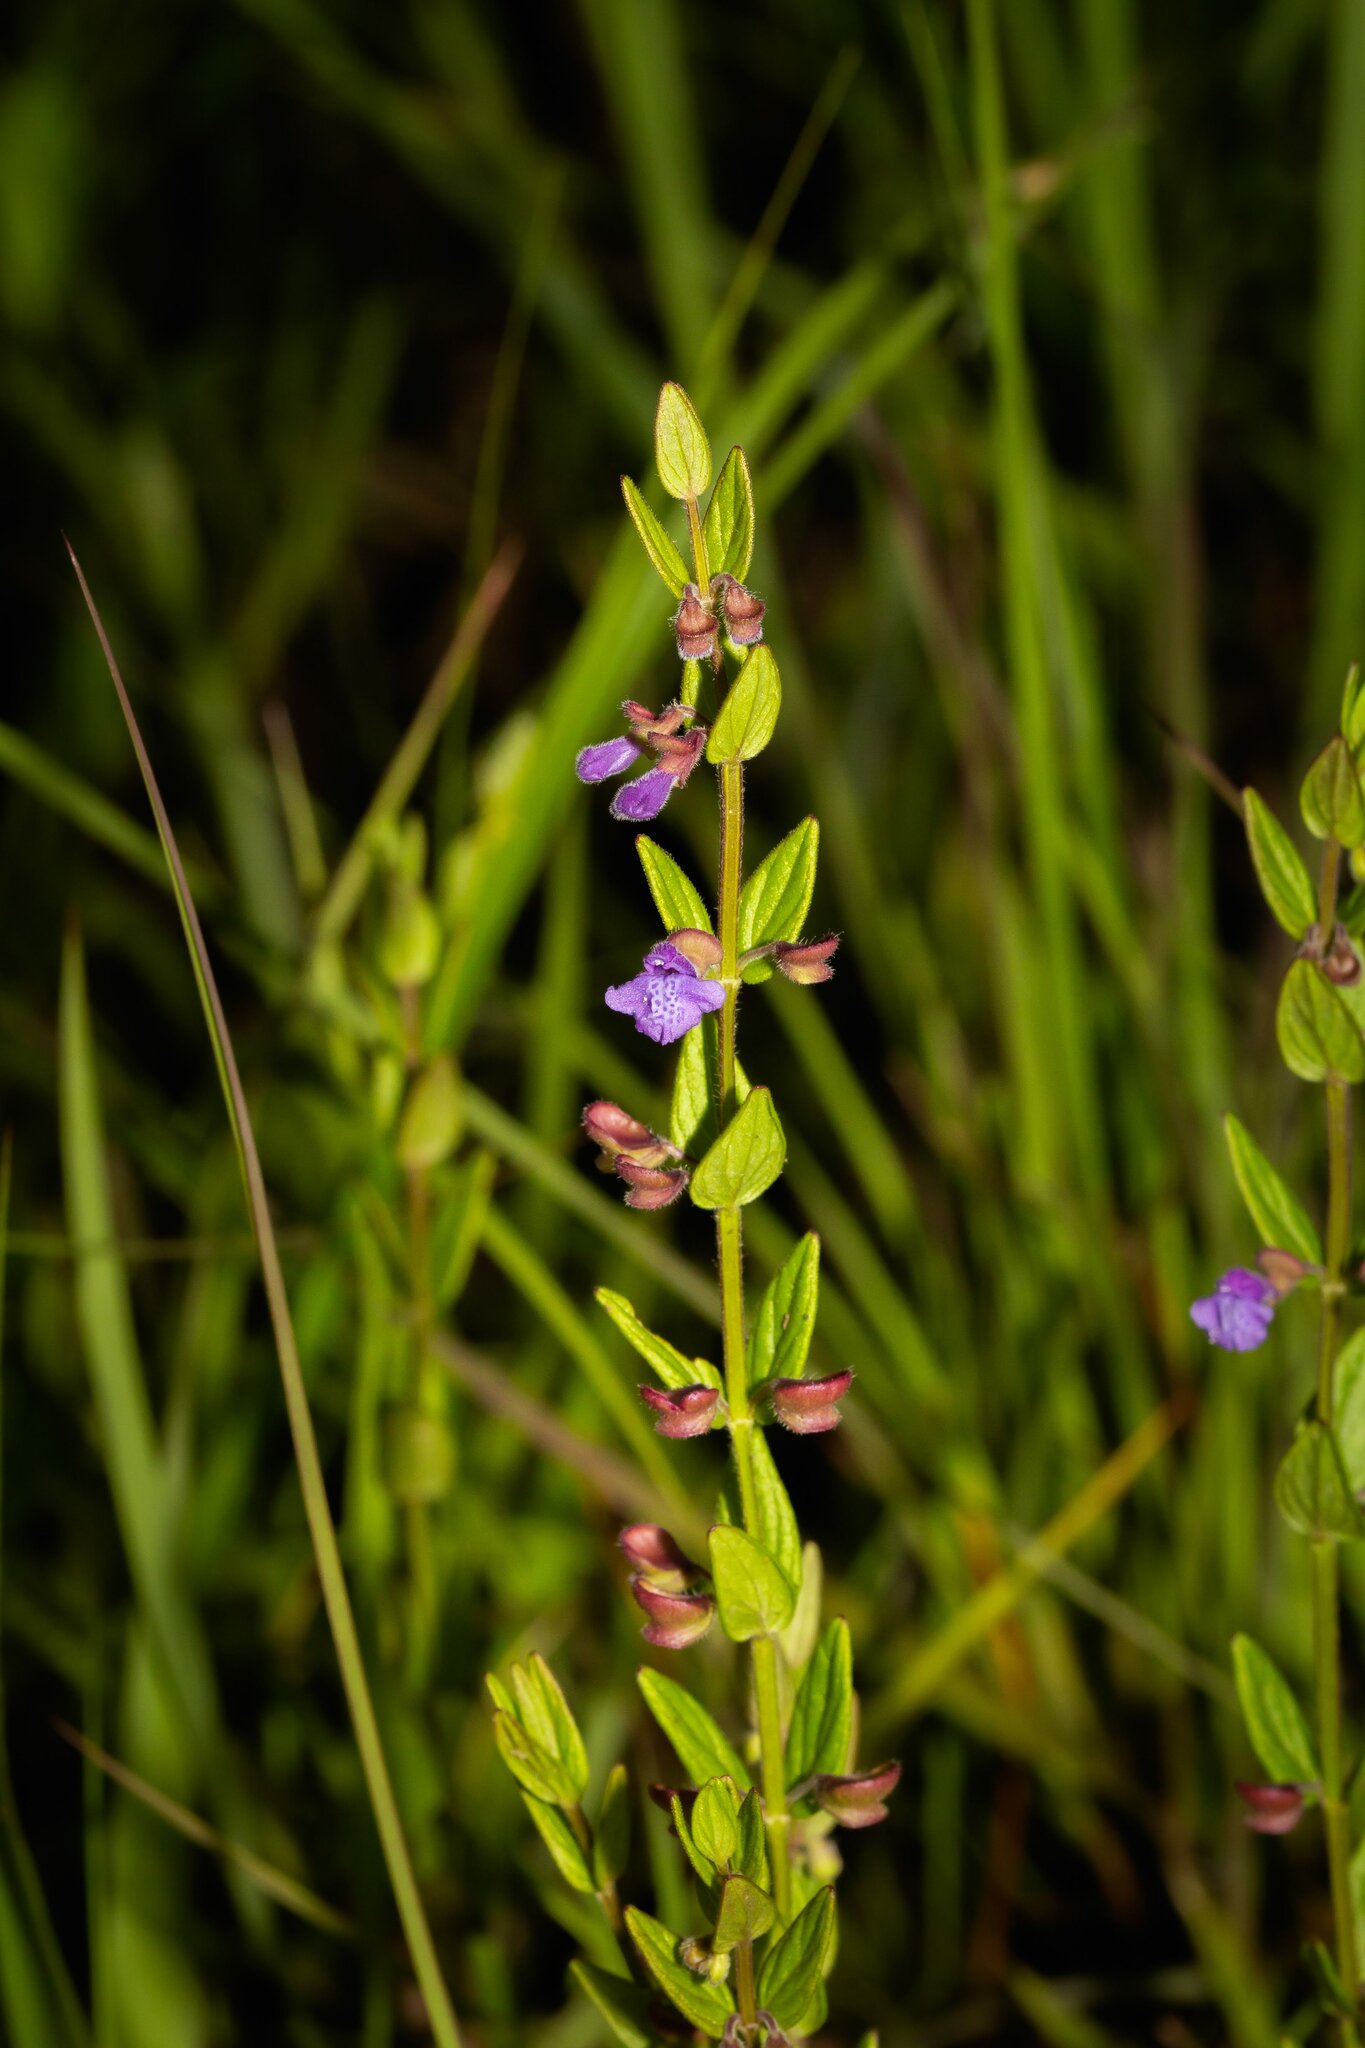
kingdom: Plantae
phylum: Tracheophyta
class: Magnoliopsida
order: Lamiales
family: Lamiaceae
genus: Scutellaria
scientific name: Scutellaria parvula
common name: Little scullcap
